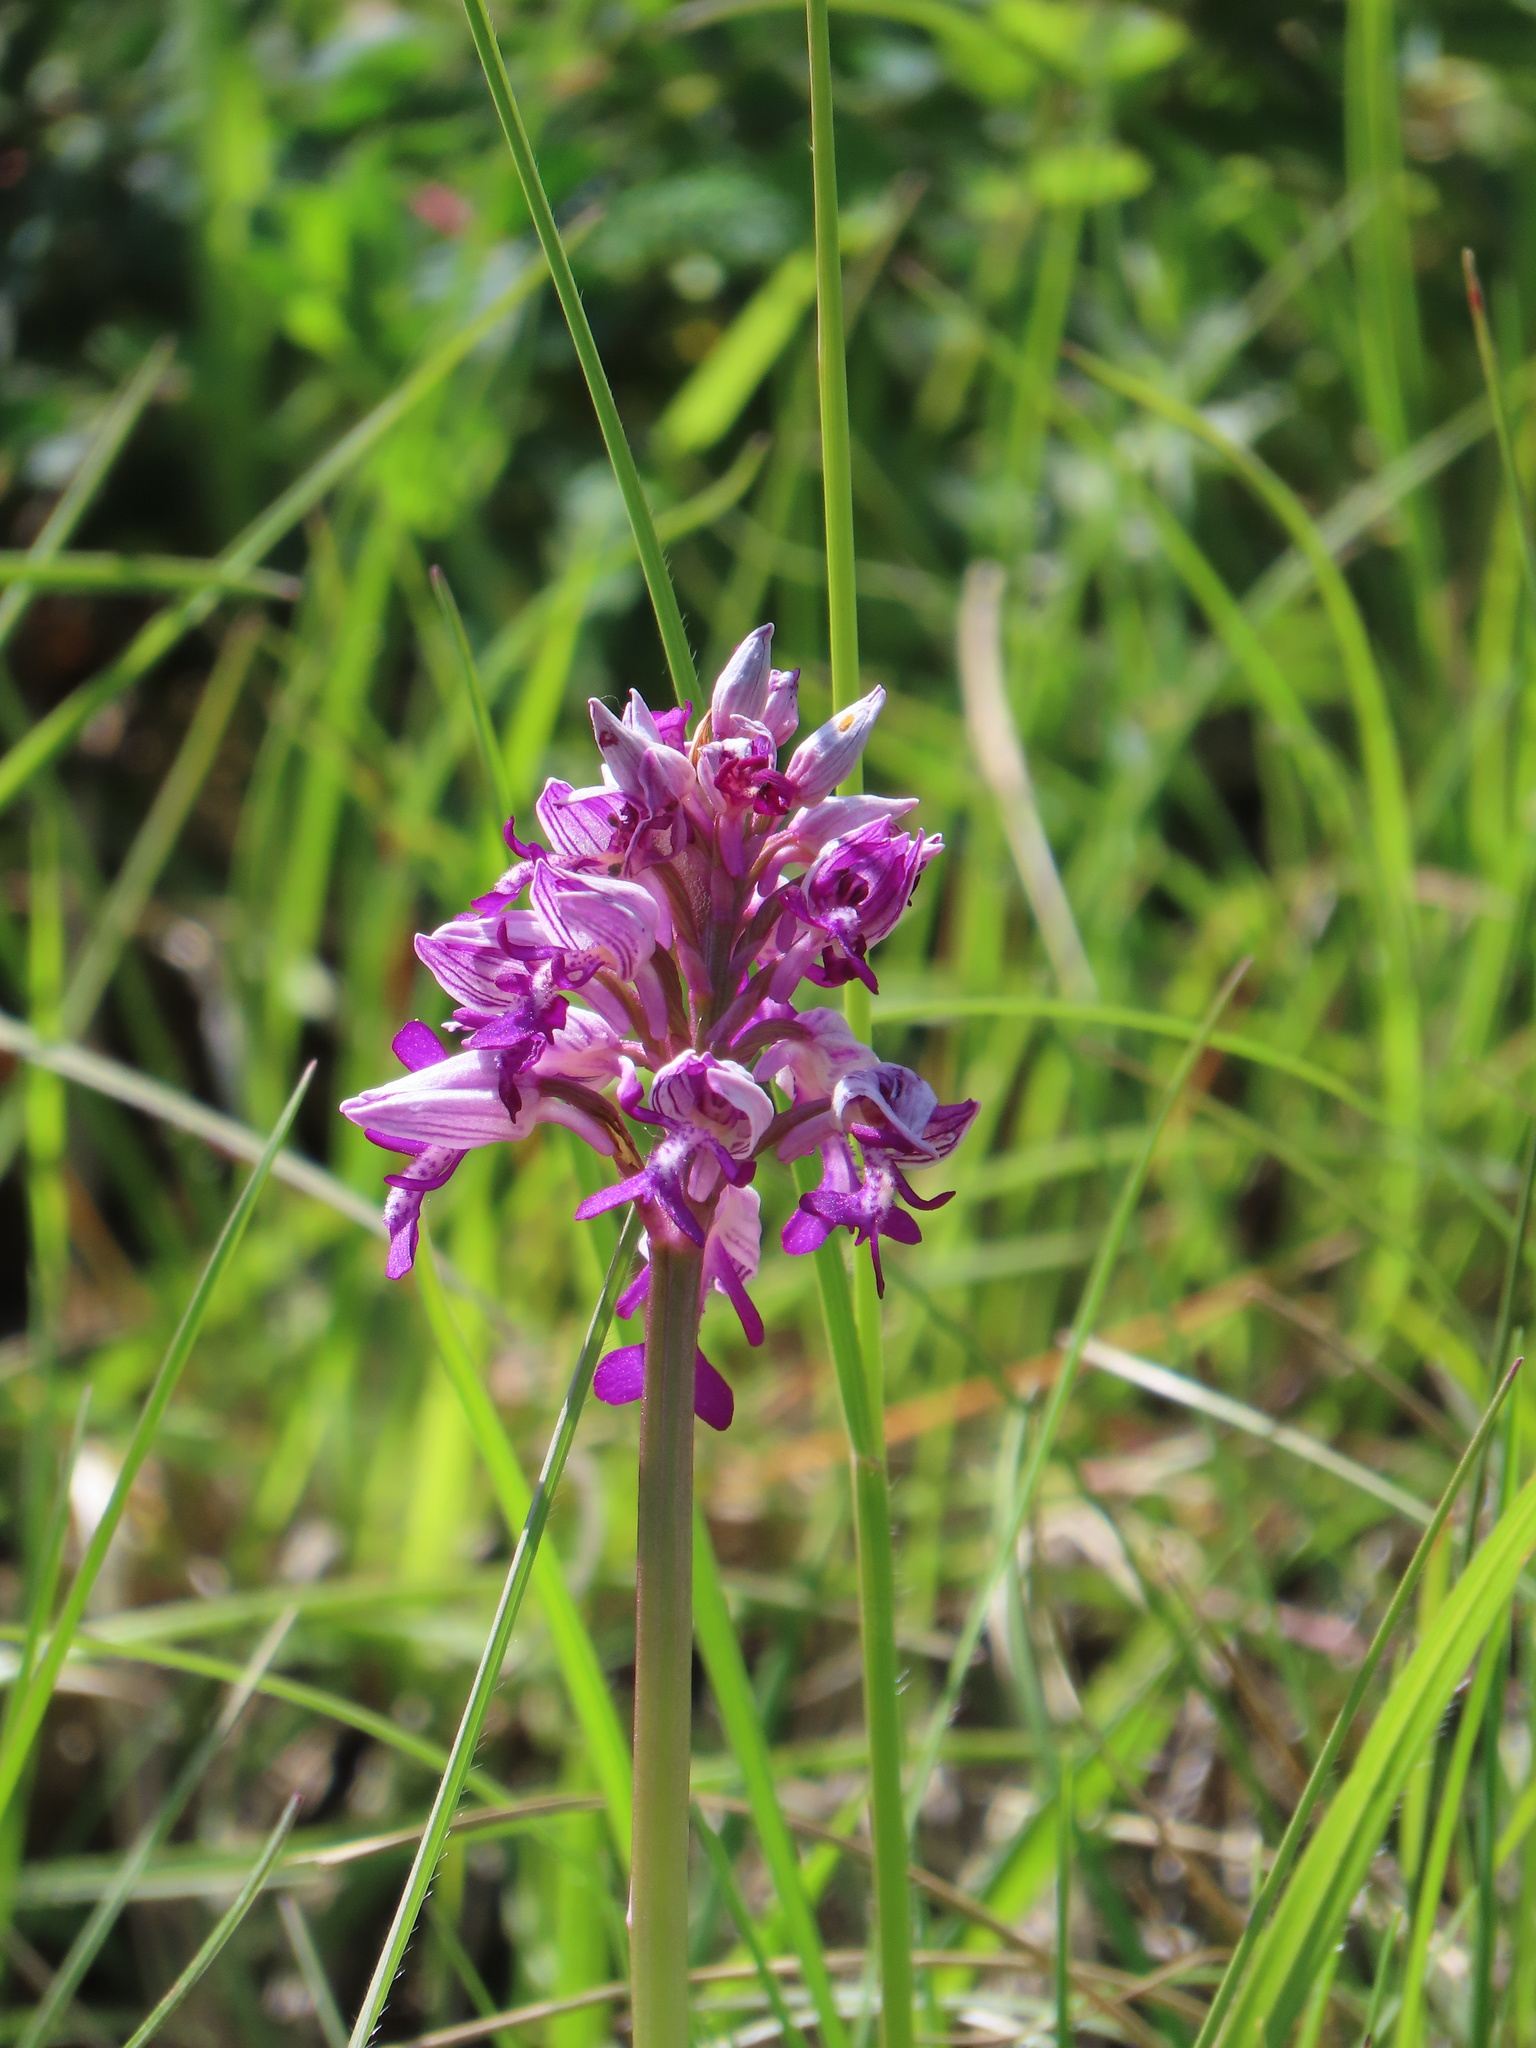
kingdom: Plantae
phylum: Tracheophyta
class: Liliopsida
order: Asparagales
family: Orchidaceae
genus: Orchis
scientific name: Orchis beyrichii
